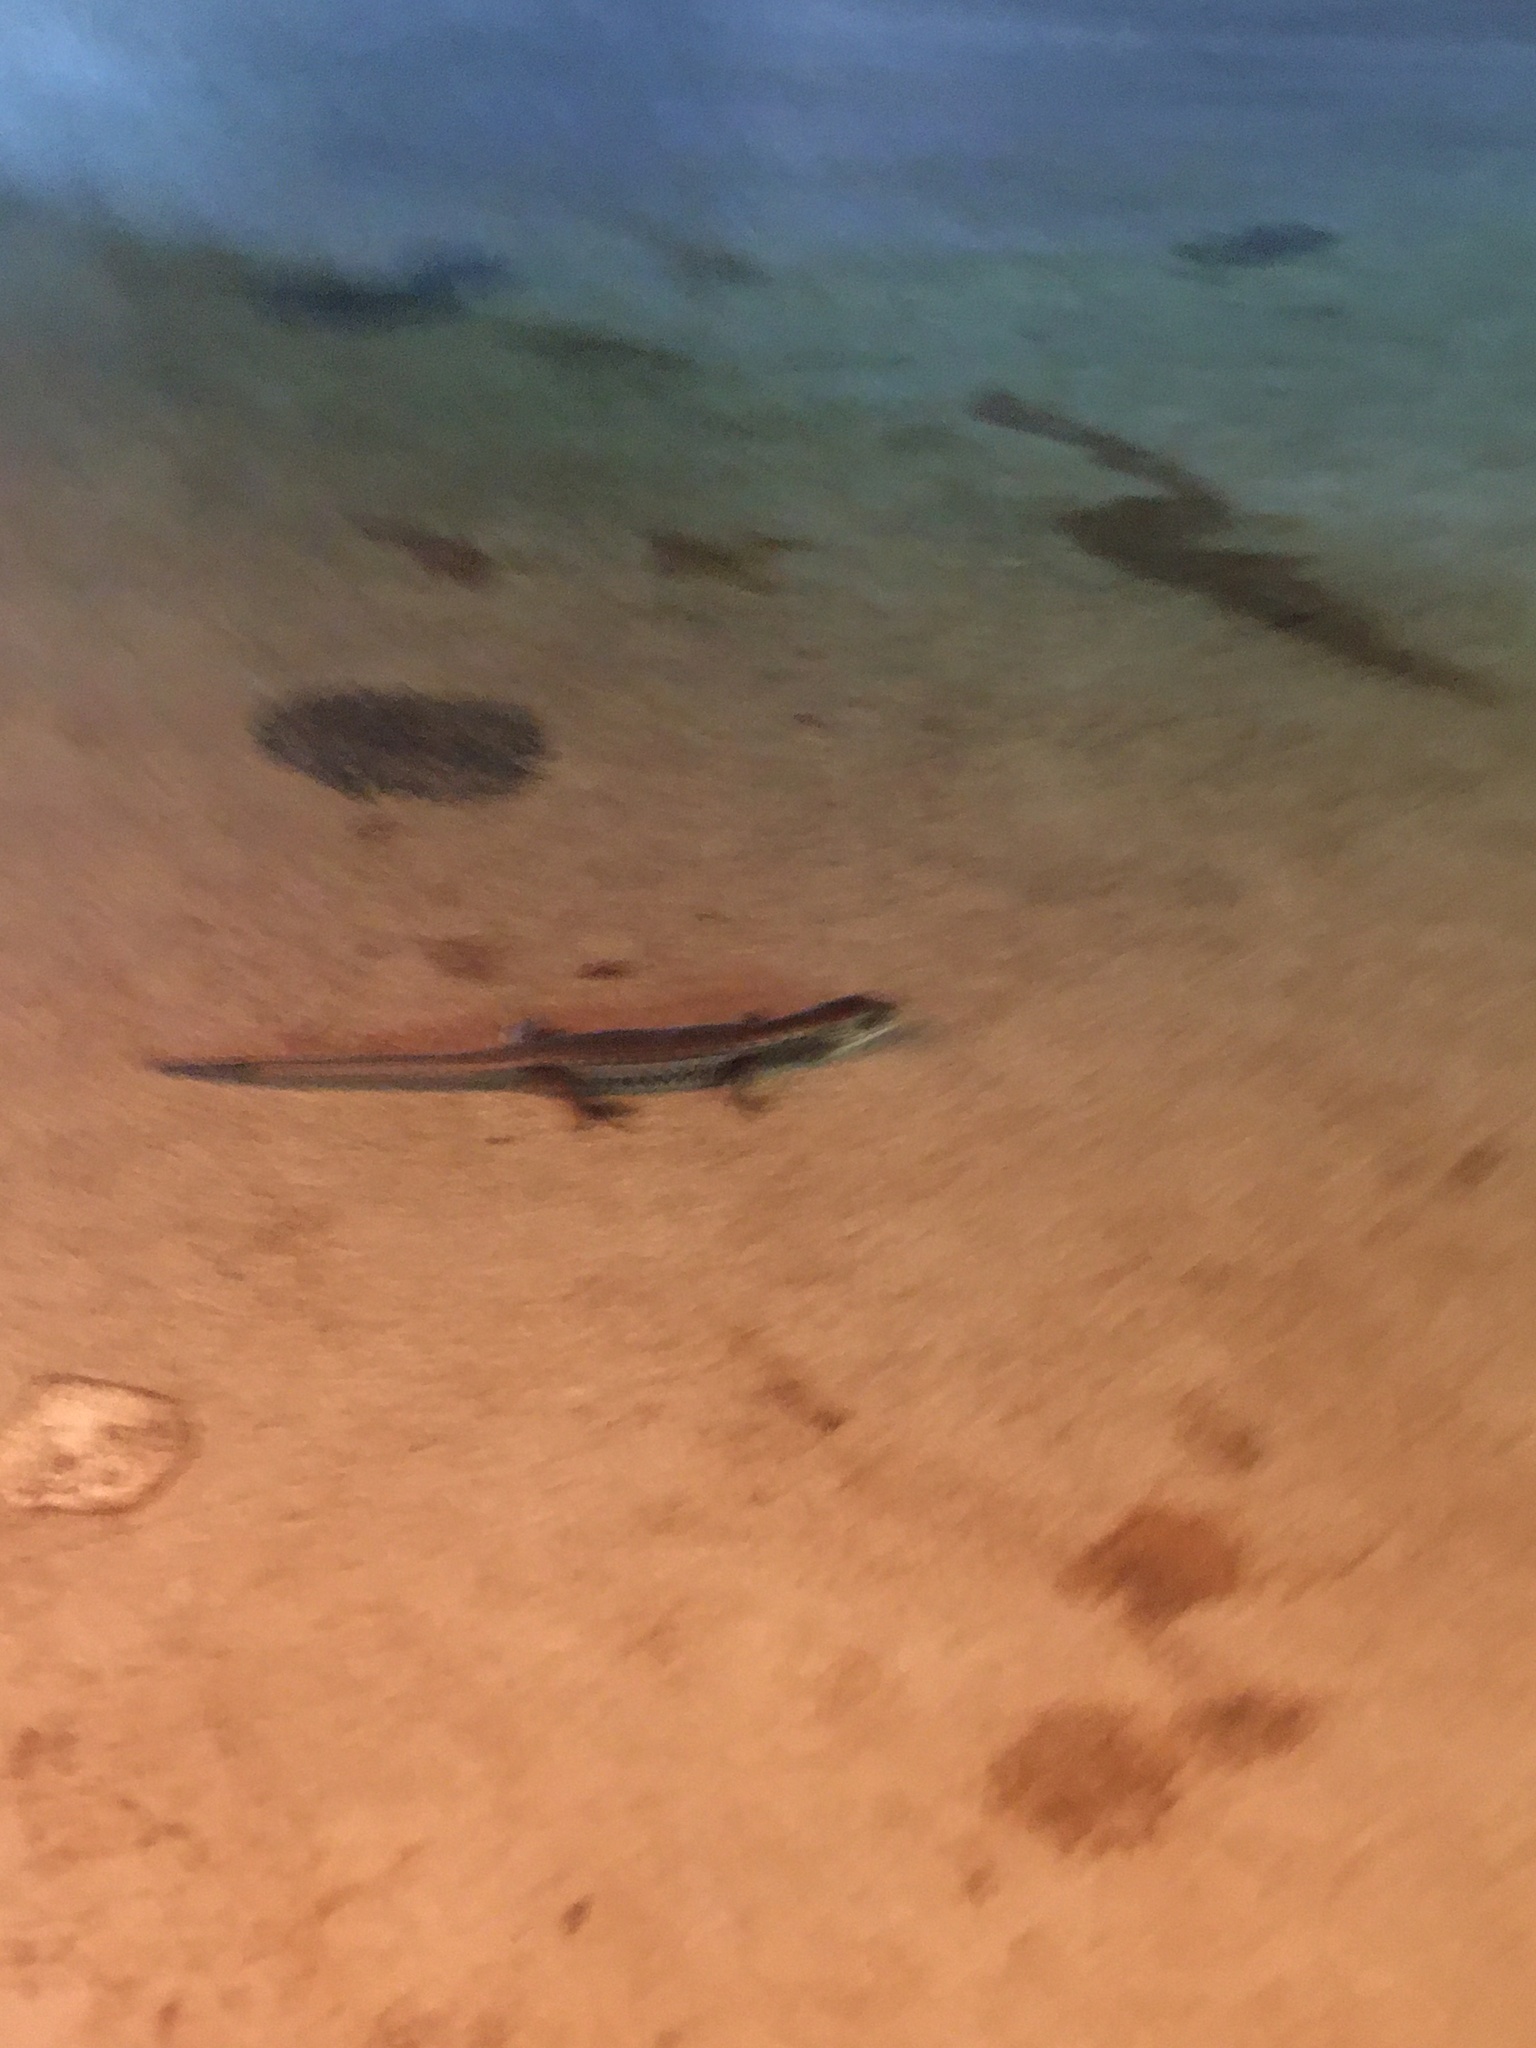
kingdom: Animalia
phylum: Chordata
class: Squamata
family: Anguidae
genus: Elgaria
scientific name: Elgaria coerulea
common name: Northern alligator lizard
